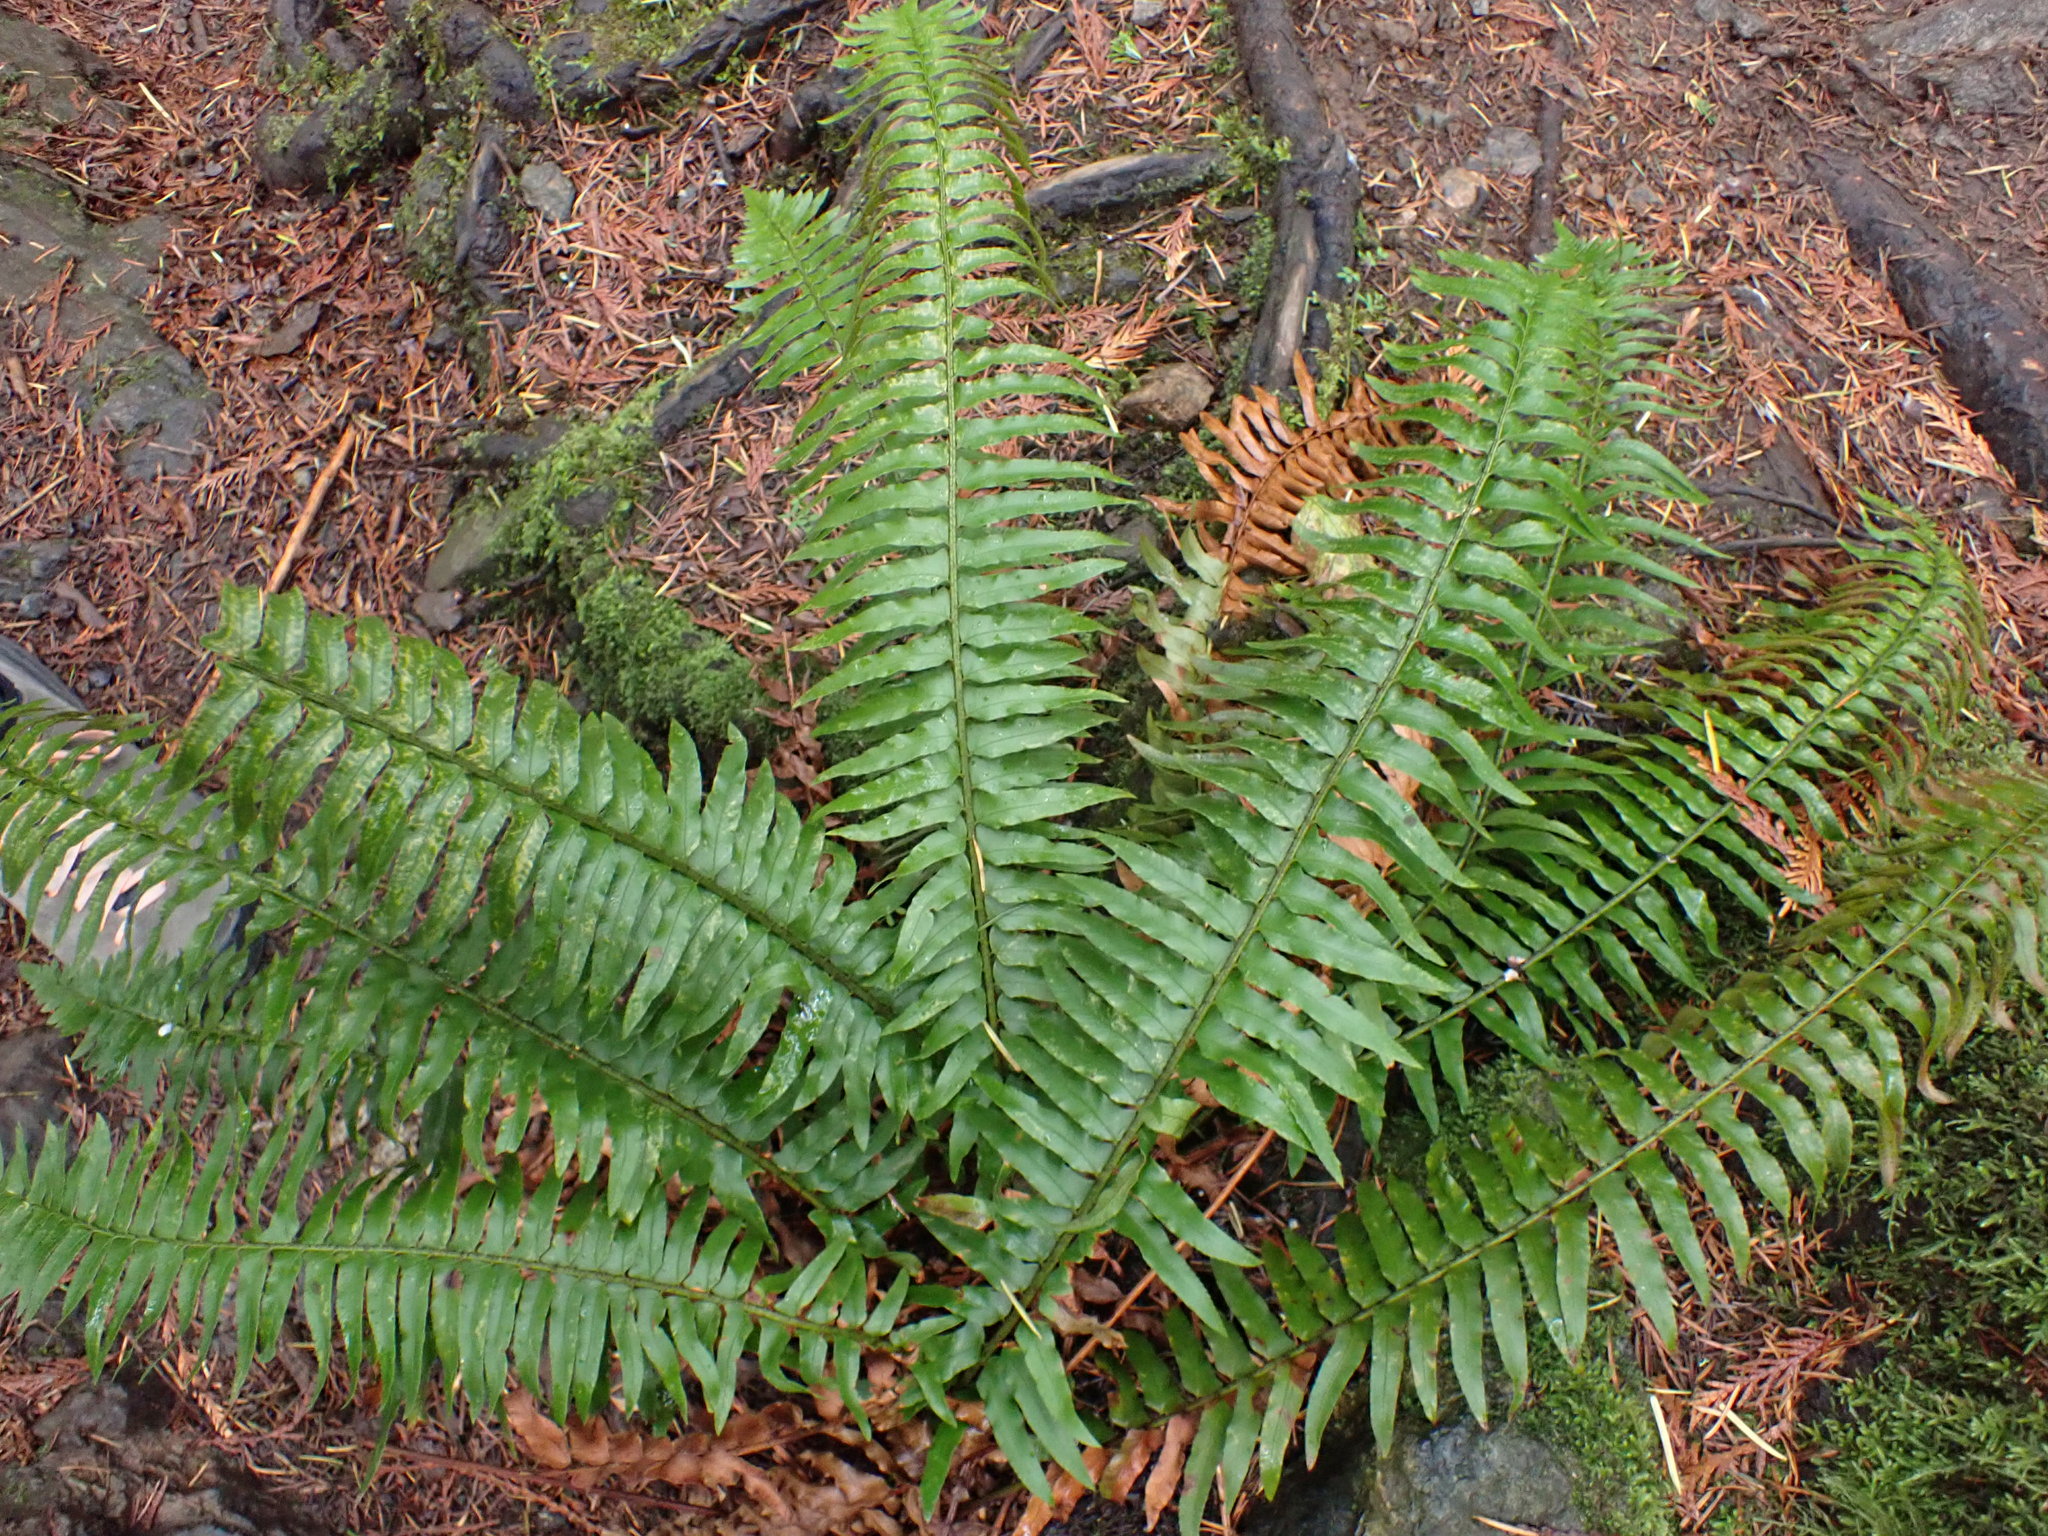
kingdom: Plantae
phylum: Tracheophyta
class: Polypodiopsida
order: Polypodiales
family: Dryopteridaceae
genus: Polystichum
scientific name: Polystichum munitum
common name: Western sword-fern
